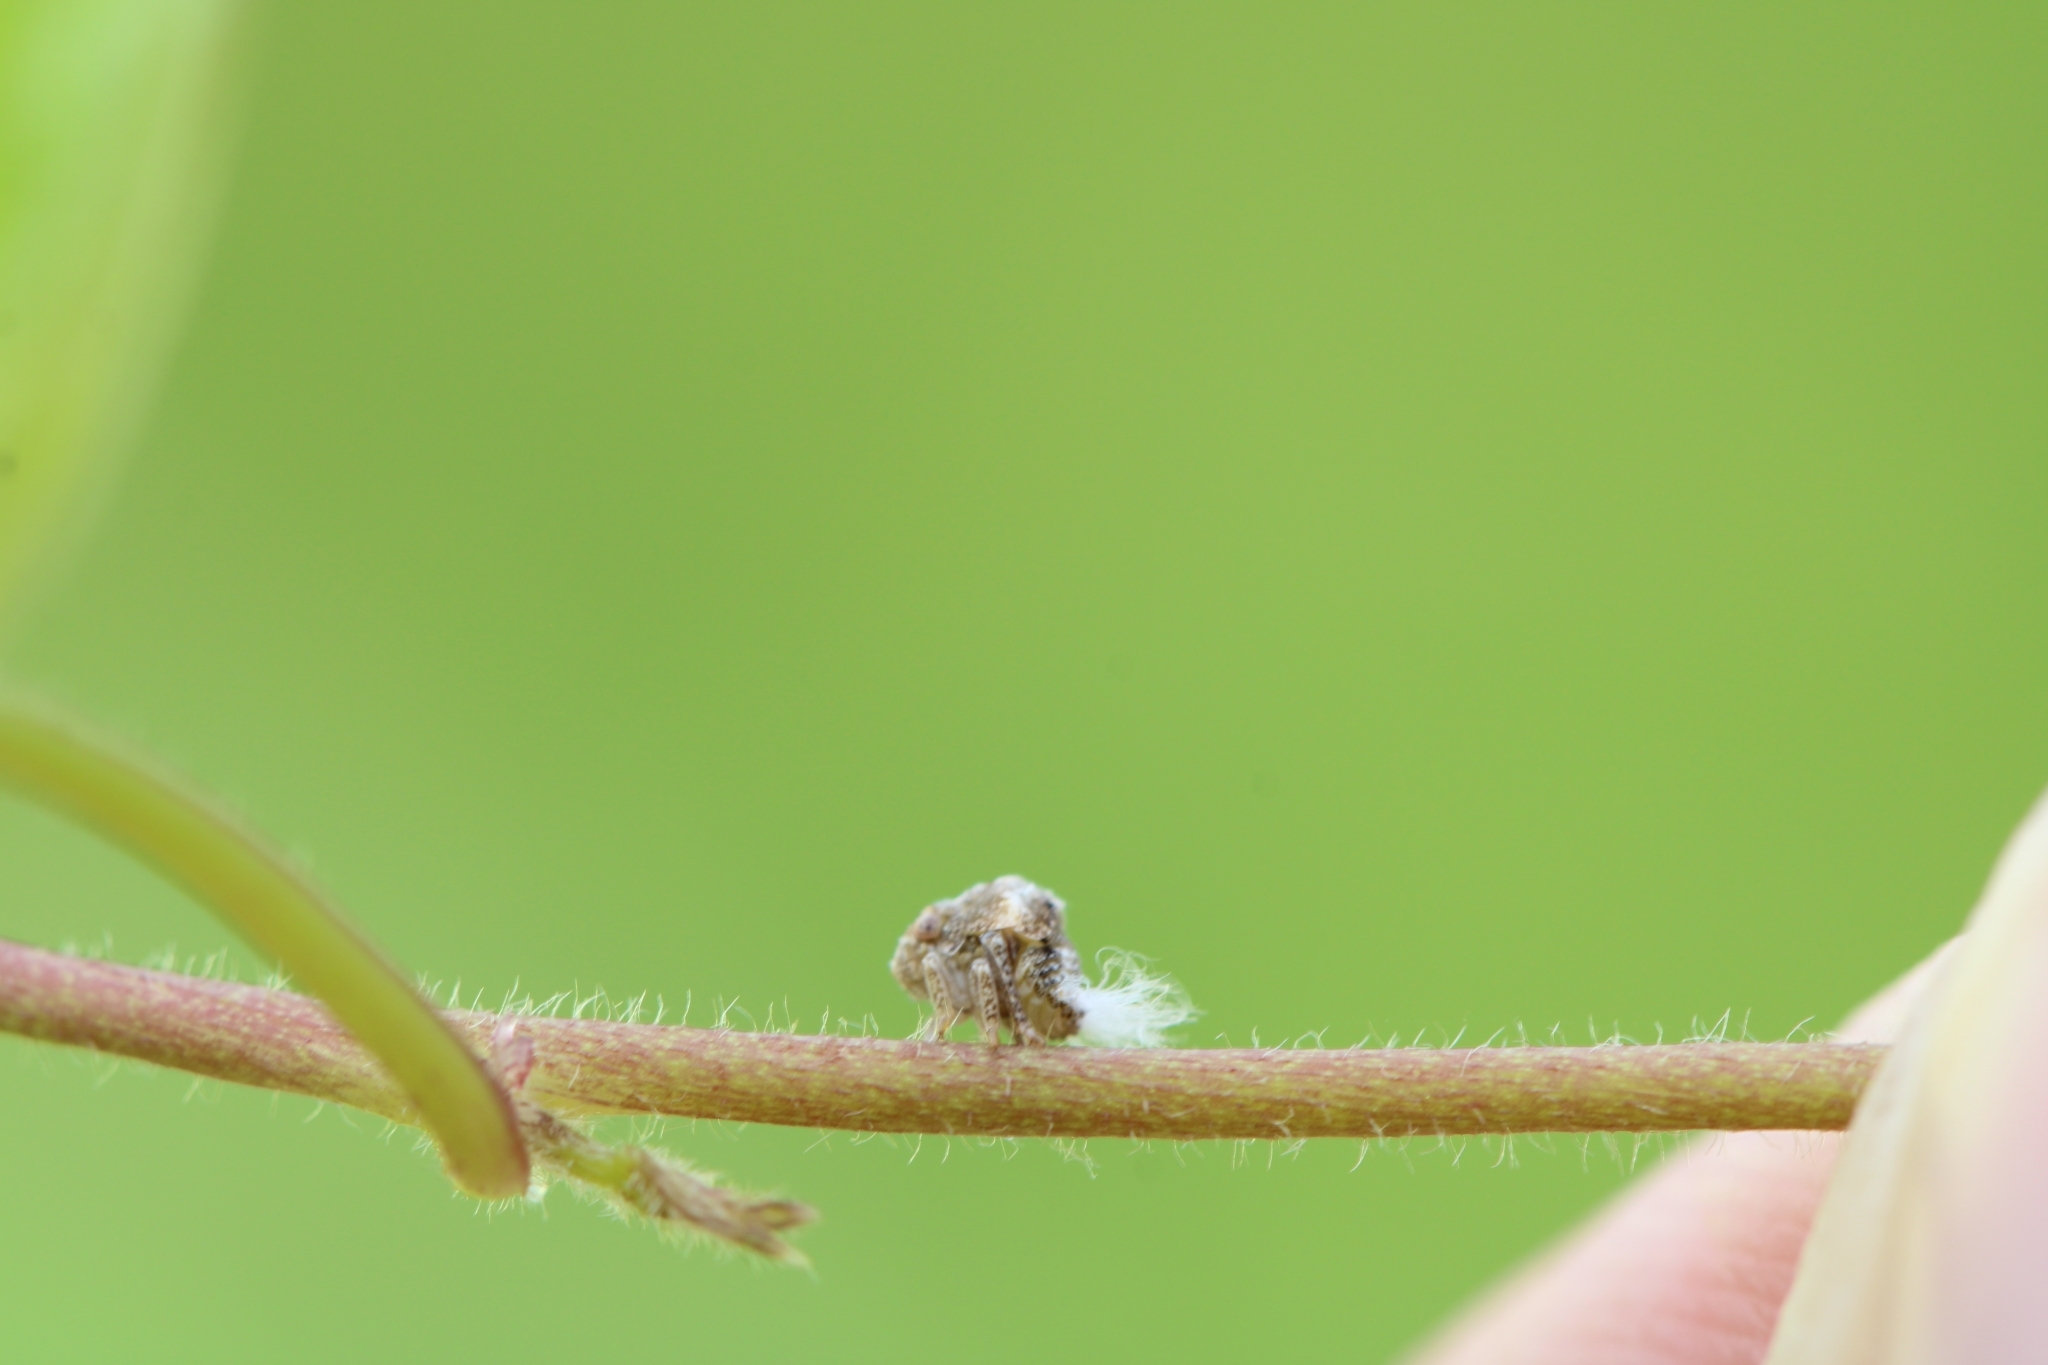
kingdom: Animalia
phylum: Arthropoda
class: Insecta
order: Hemiptera
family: Acanaloniidae
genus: Acanalonia
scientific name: Acanalonia bivittata
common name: Two-striped planthopper
